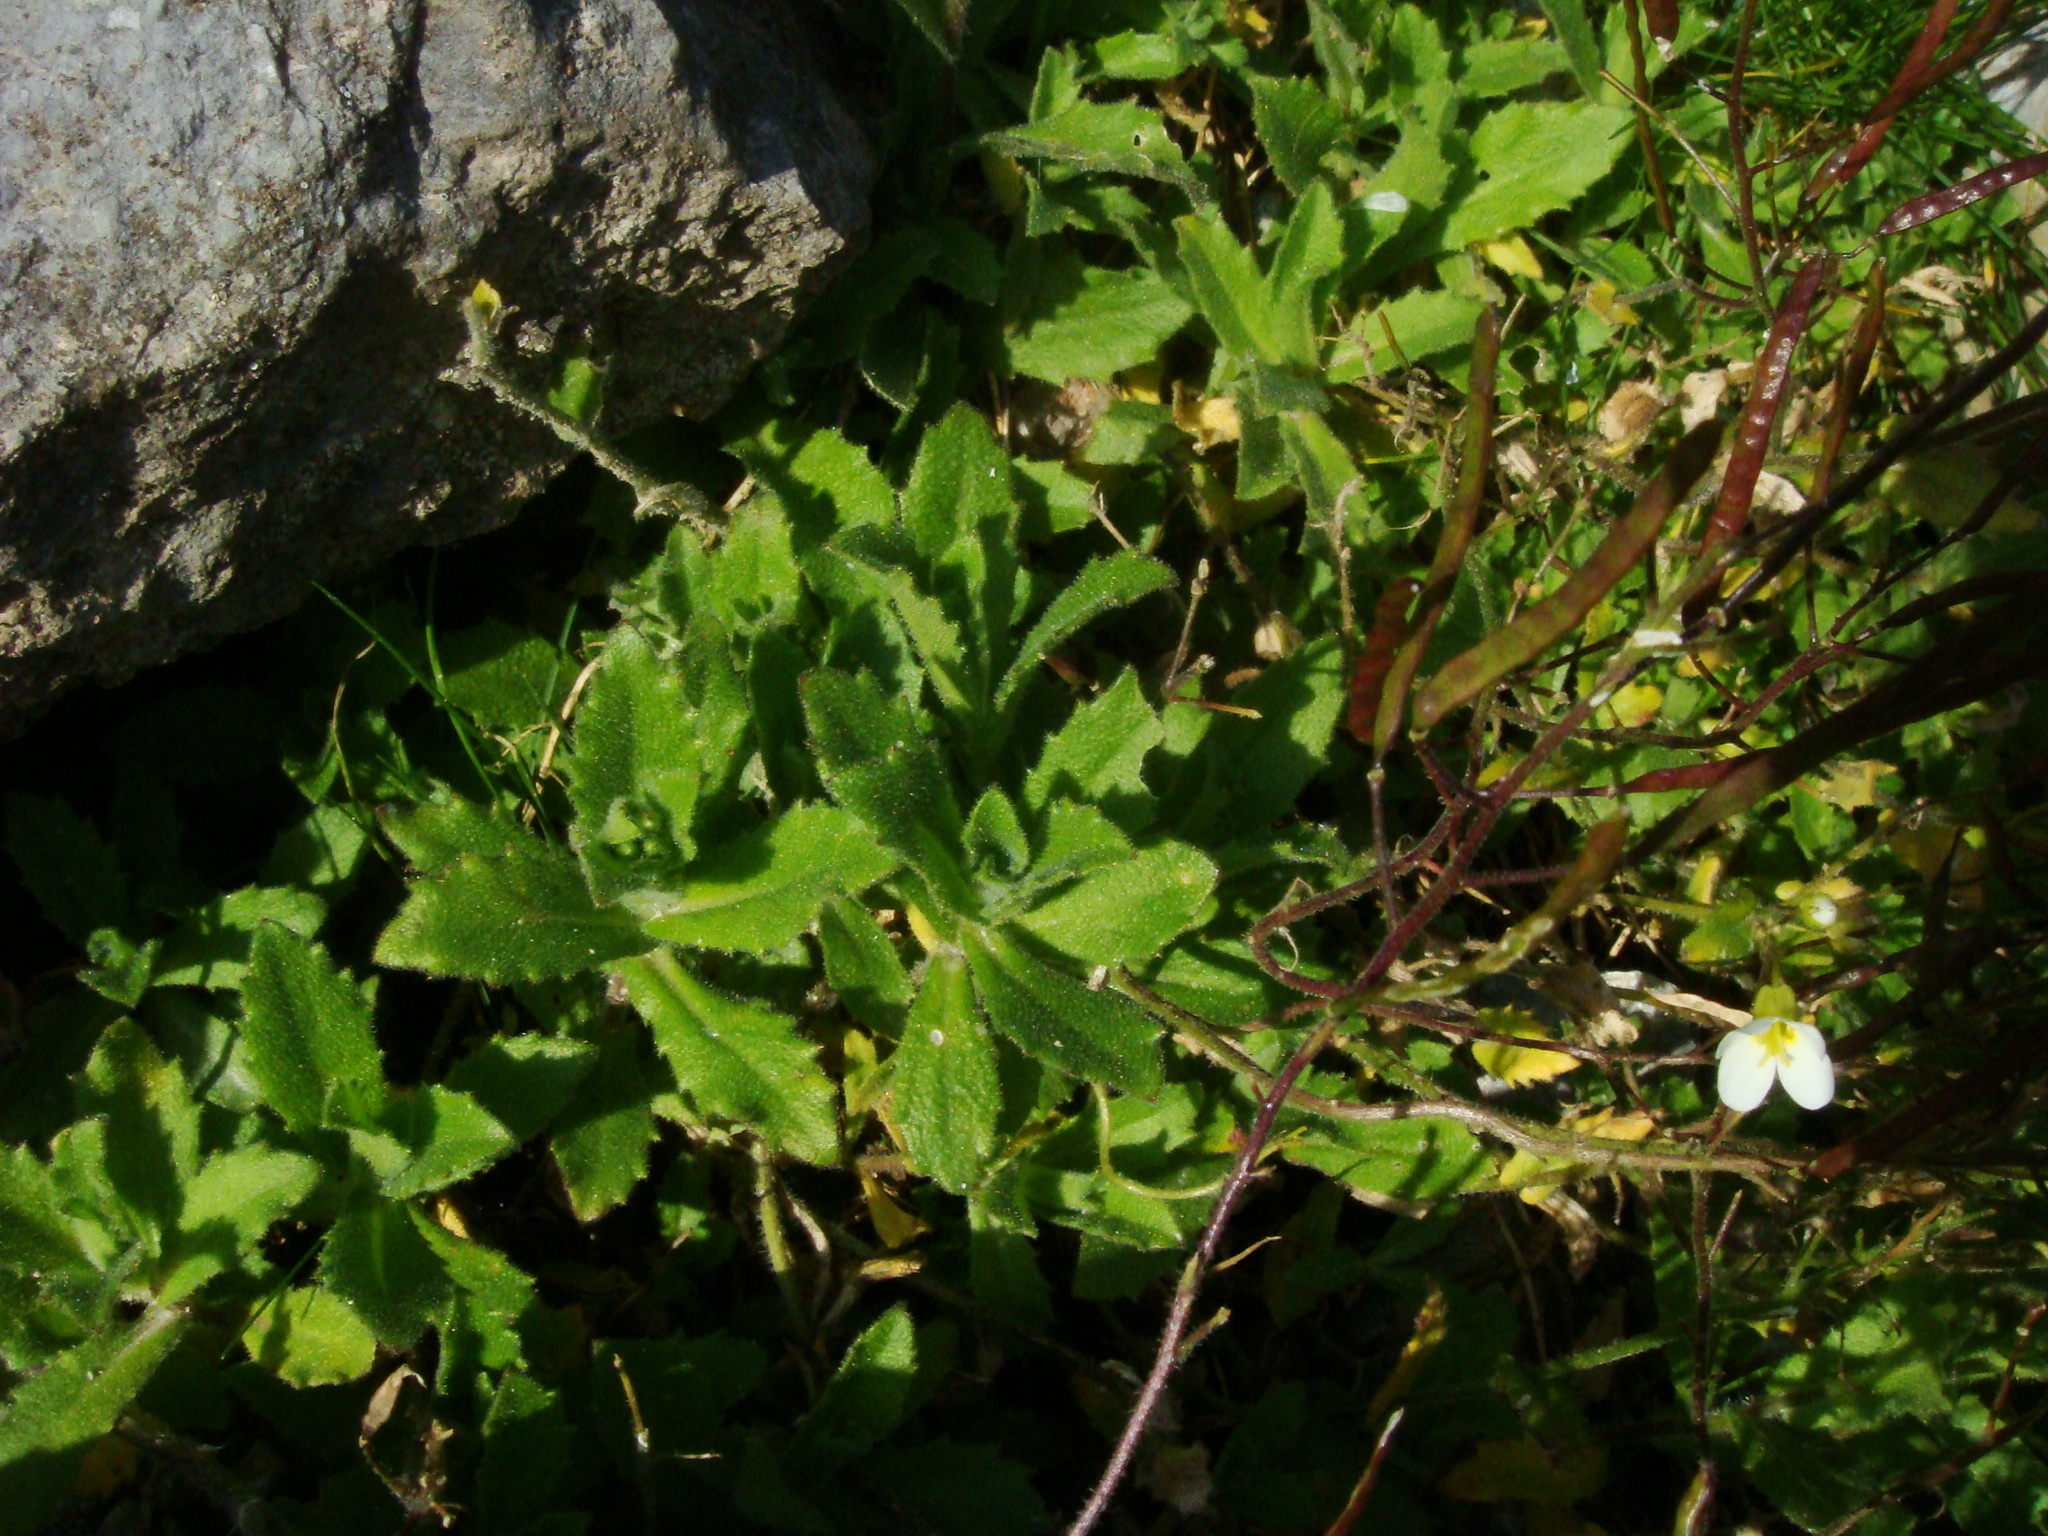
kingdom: Plantae
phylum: Tracheophyta
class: Magnoliopsida
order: Brassicales
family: Brassicaceae
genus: Arabis
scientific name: Arabis alpina
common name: Alpine rock-cress
